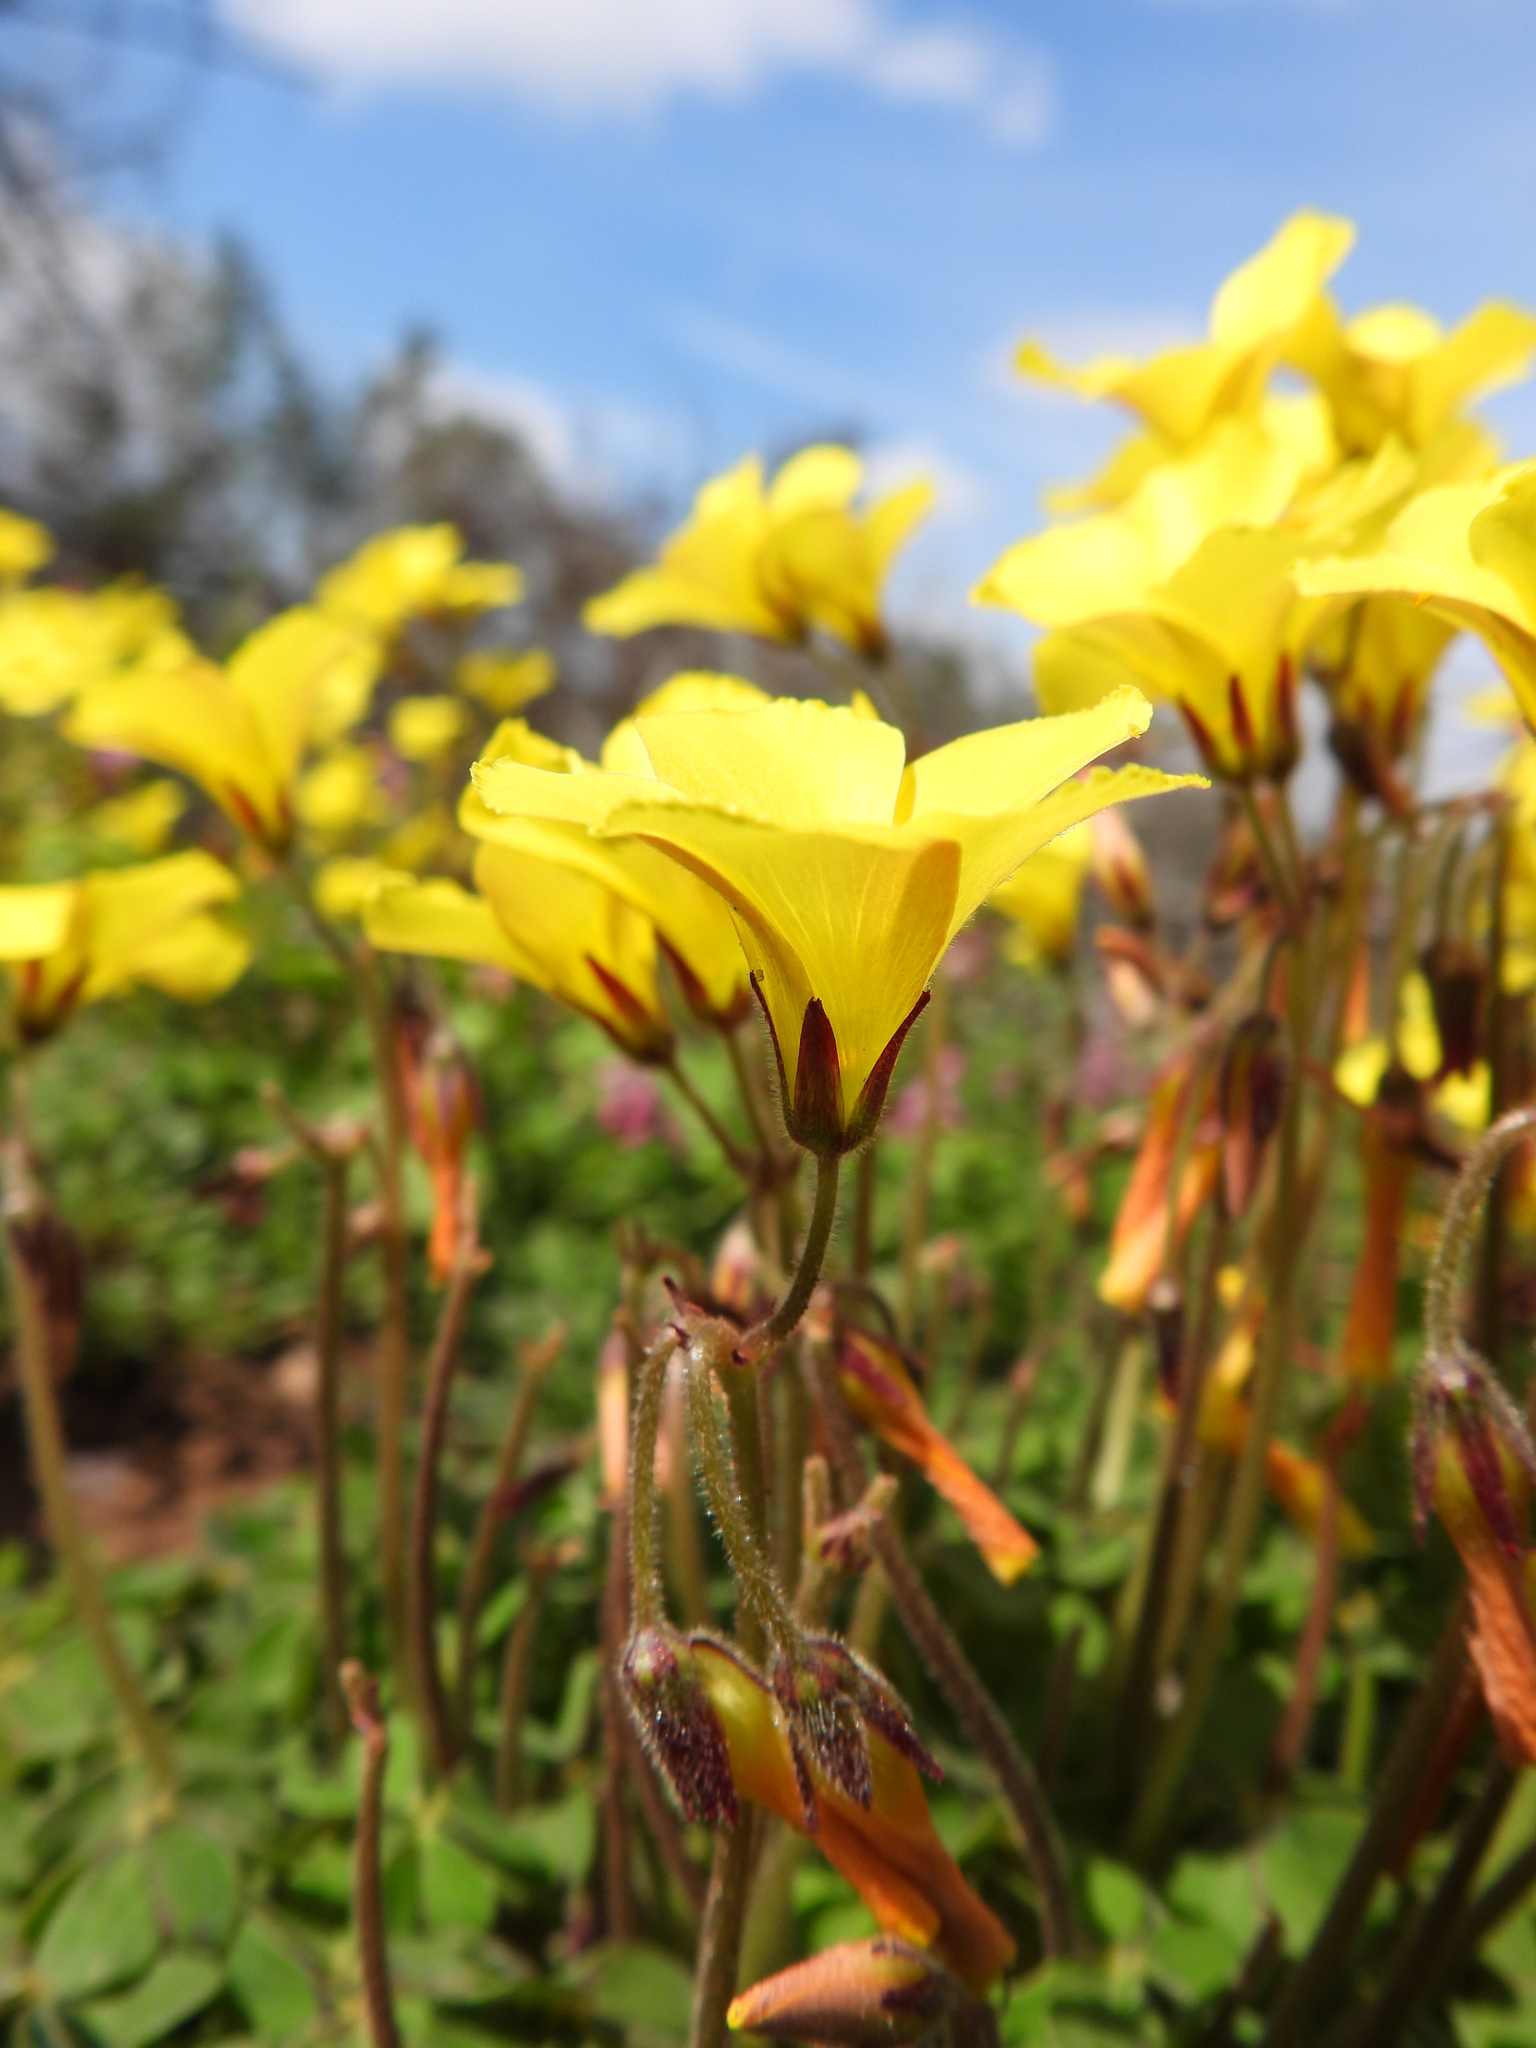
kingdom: Plantae
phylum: Tracheophyta
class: Magnoliopsida
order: Oxalidales
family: Oxalidaceae
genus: Oxalis
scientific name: Oxalis pes-caprae
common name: Bermuda-buttercup
